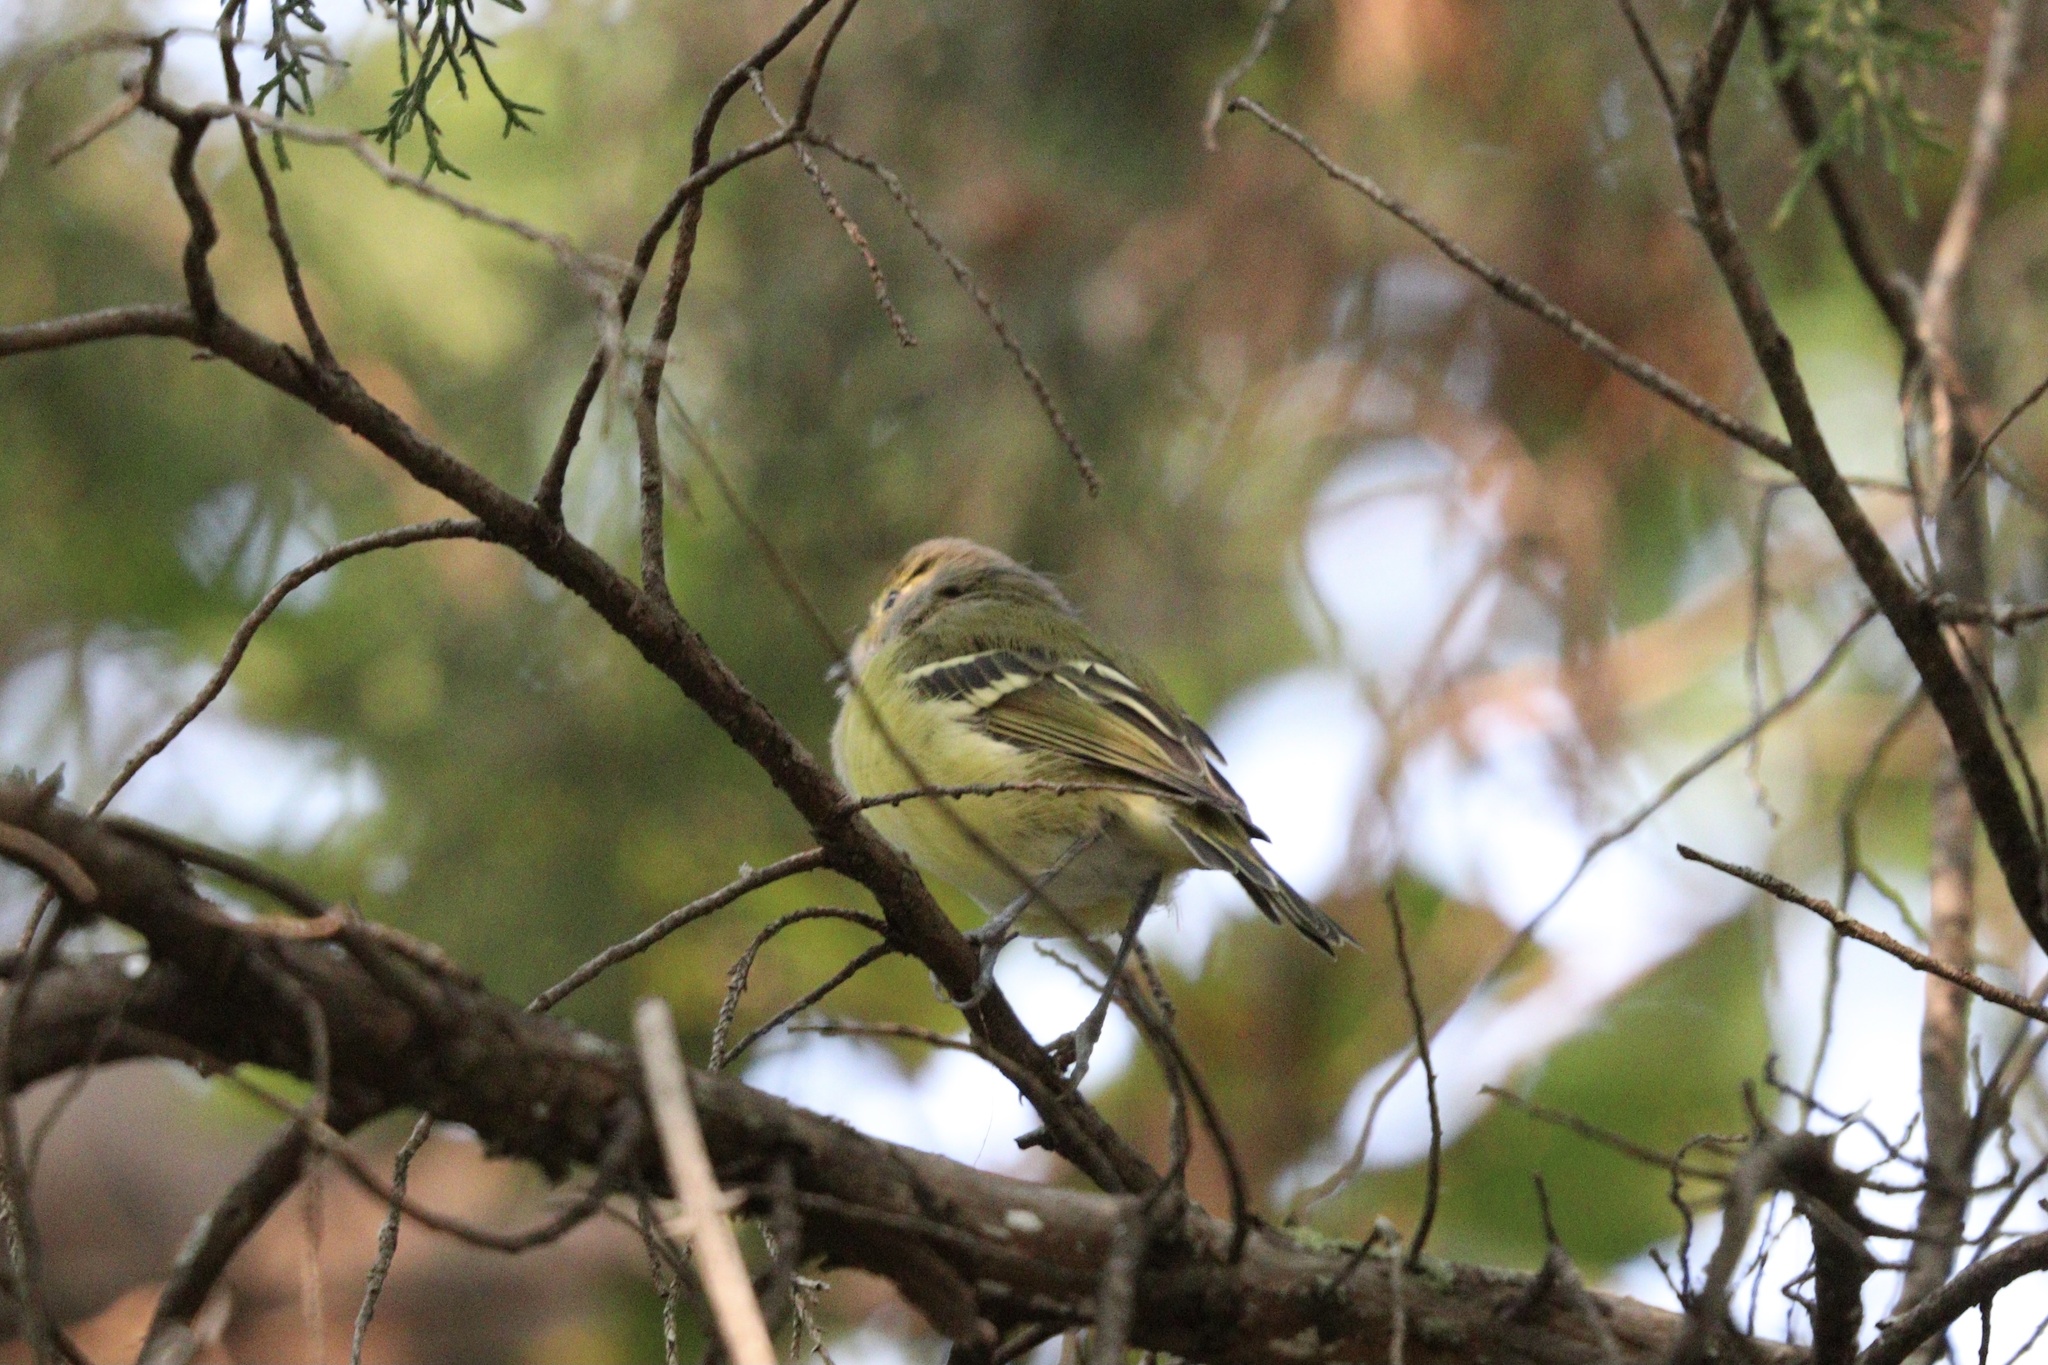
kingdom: Animalia
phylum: Chordata
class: Aves
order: Passeriformes
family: Vireonidae
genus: Vireo
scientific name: Vireo griseus
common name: White-eyed vireo
